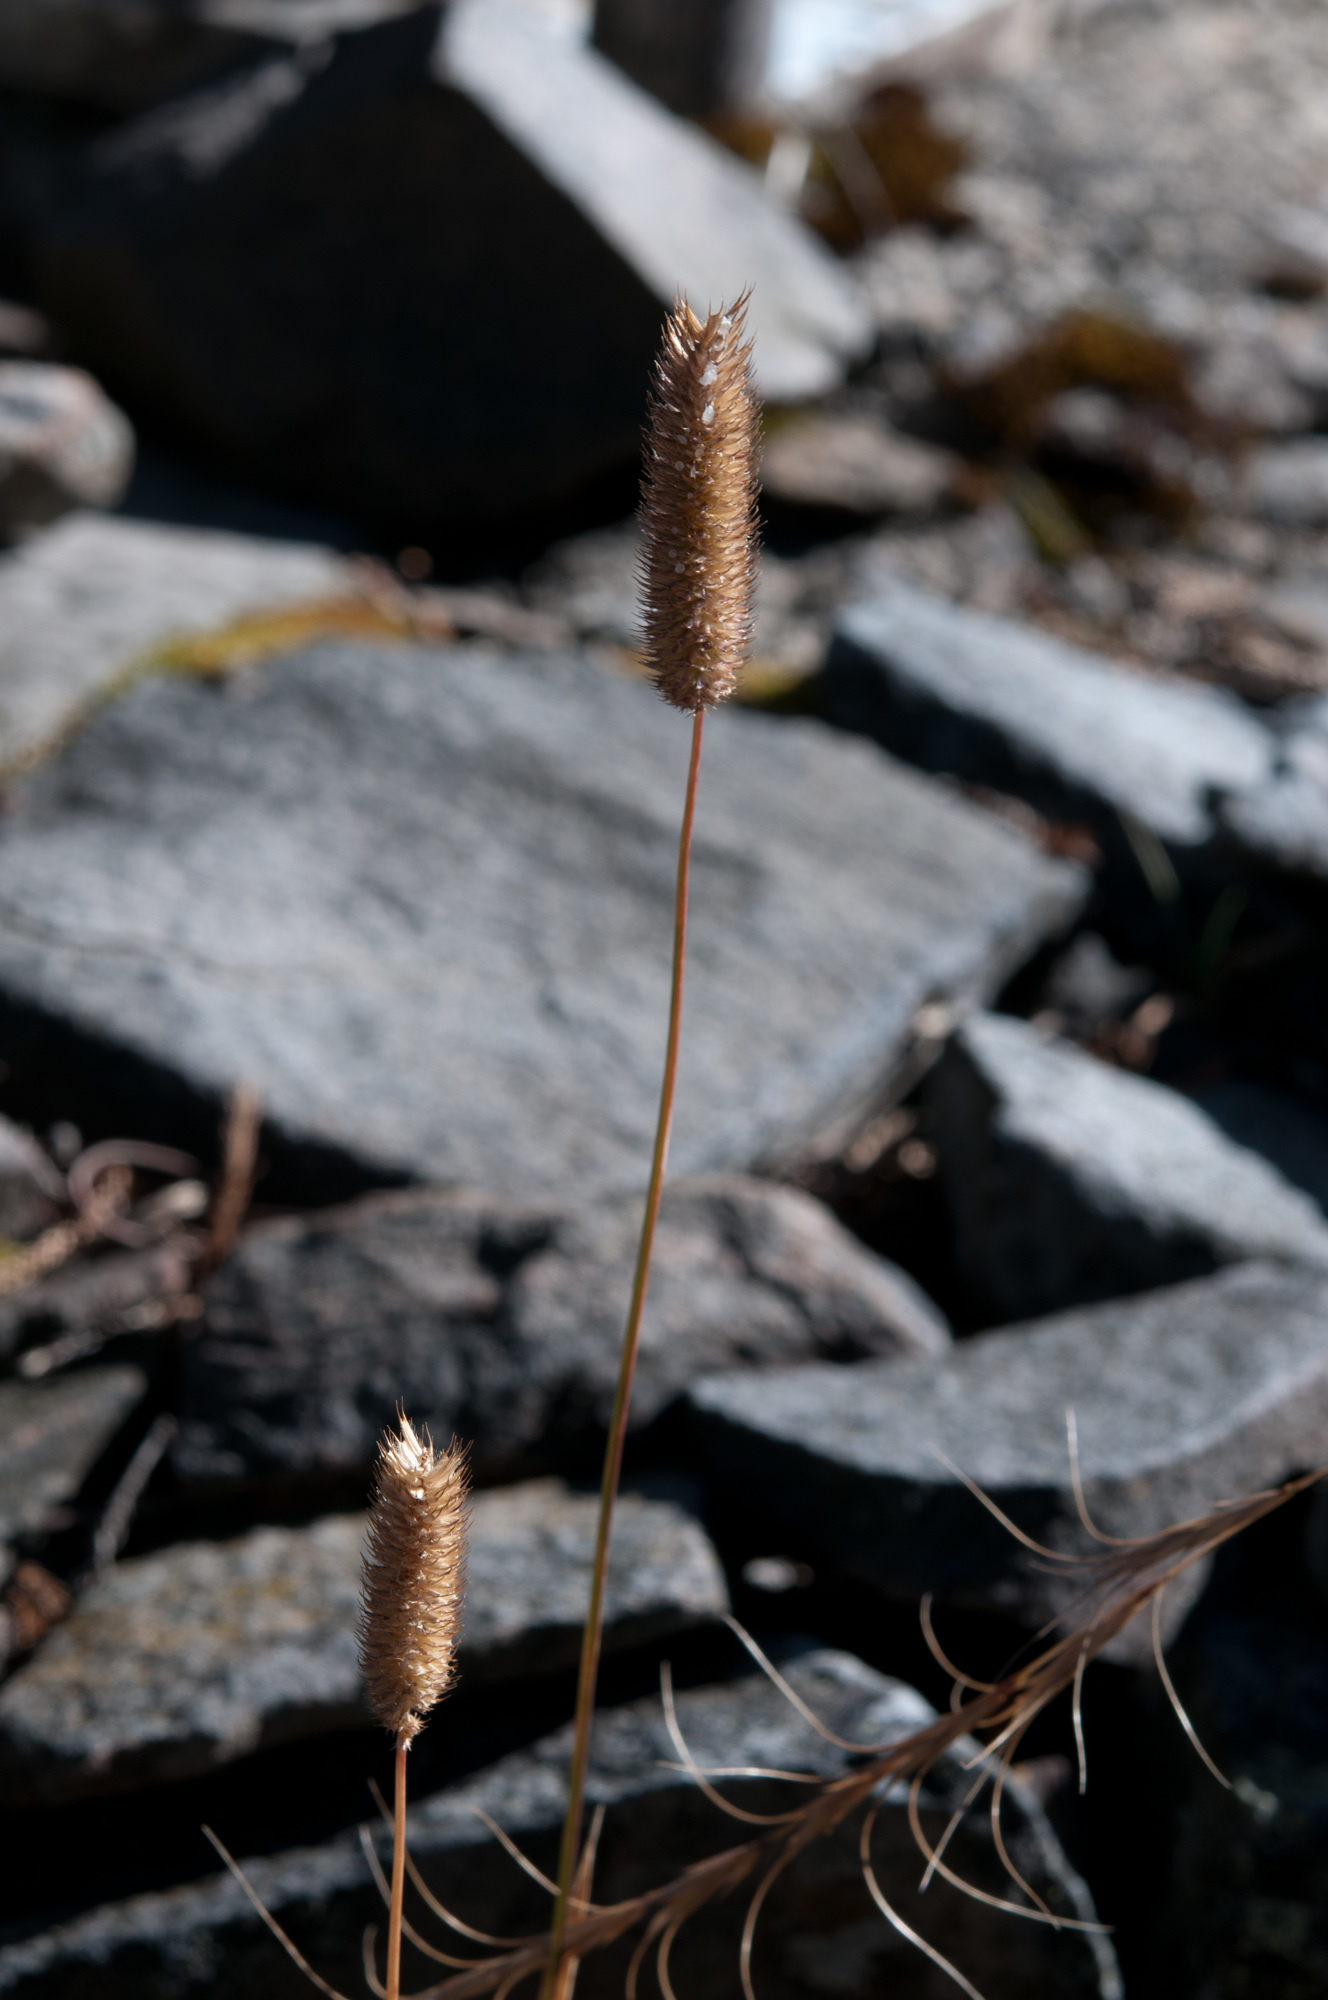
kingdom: Plantae
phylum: Tracheophyta
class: Liliopsida
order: Poales
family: Poaceae
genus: Phleum
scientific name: Phleum alpinum
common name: Alpine cat's-tail
